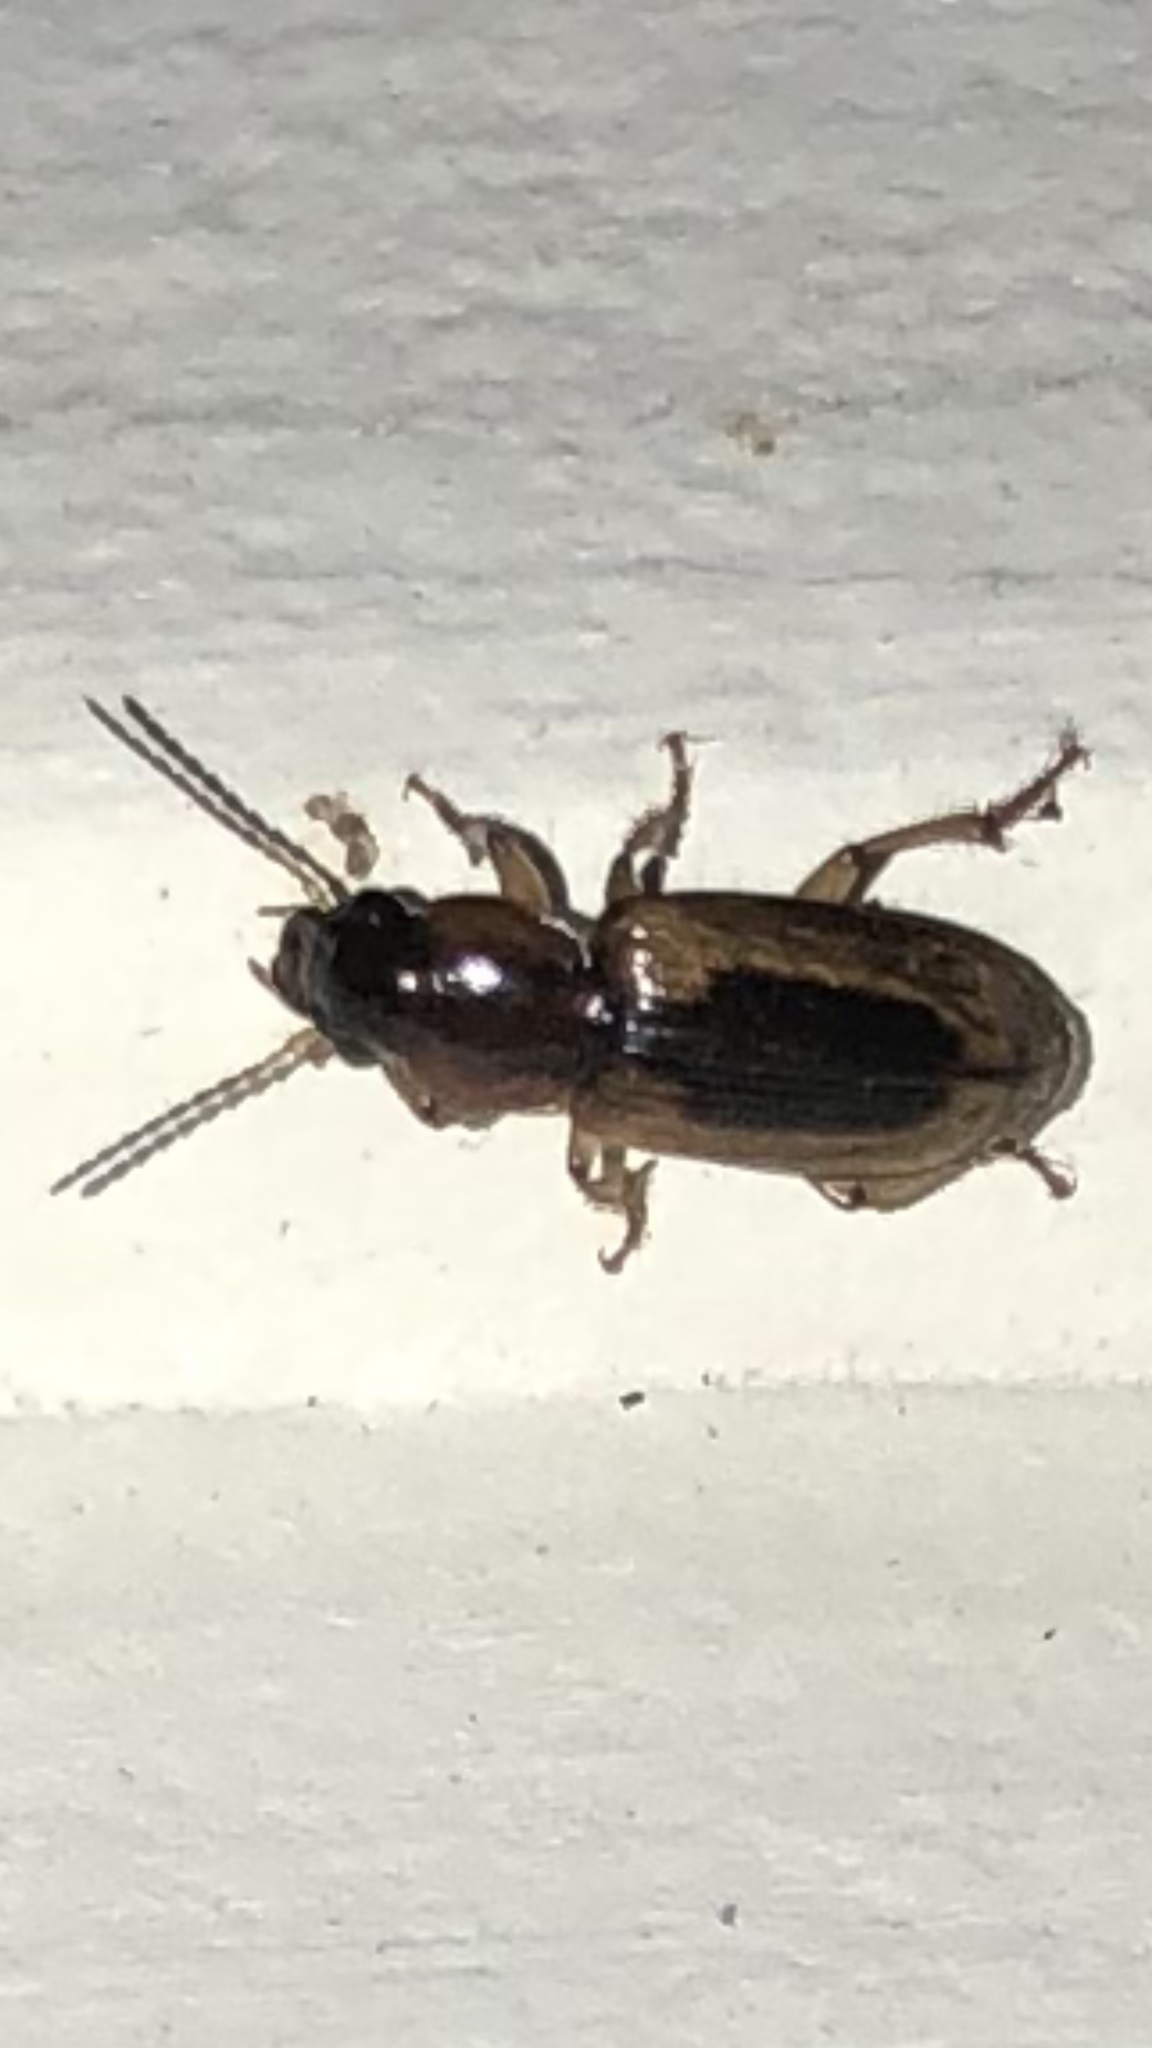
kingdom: Animalia
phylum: Arthropoda
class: Insecta
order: Coleoptera
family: Carabidae
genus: Stenolophus
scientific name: Stenolophus lecontei
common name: Leconte's seedcorn beetle
